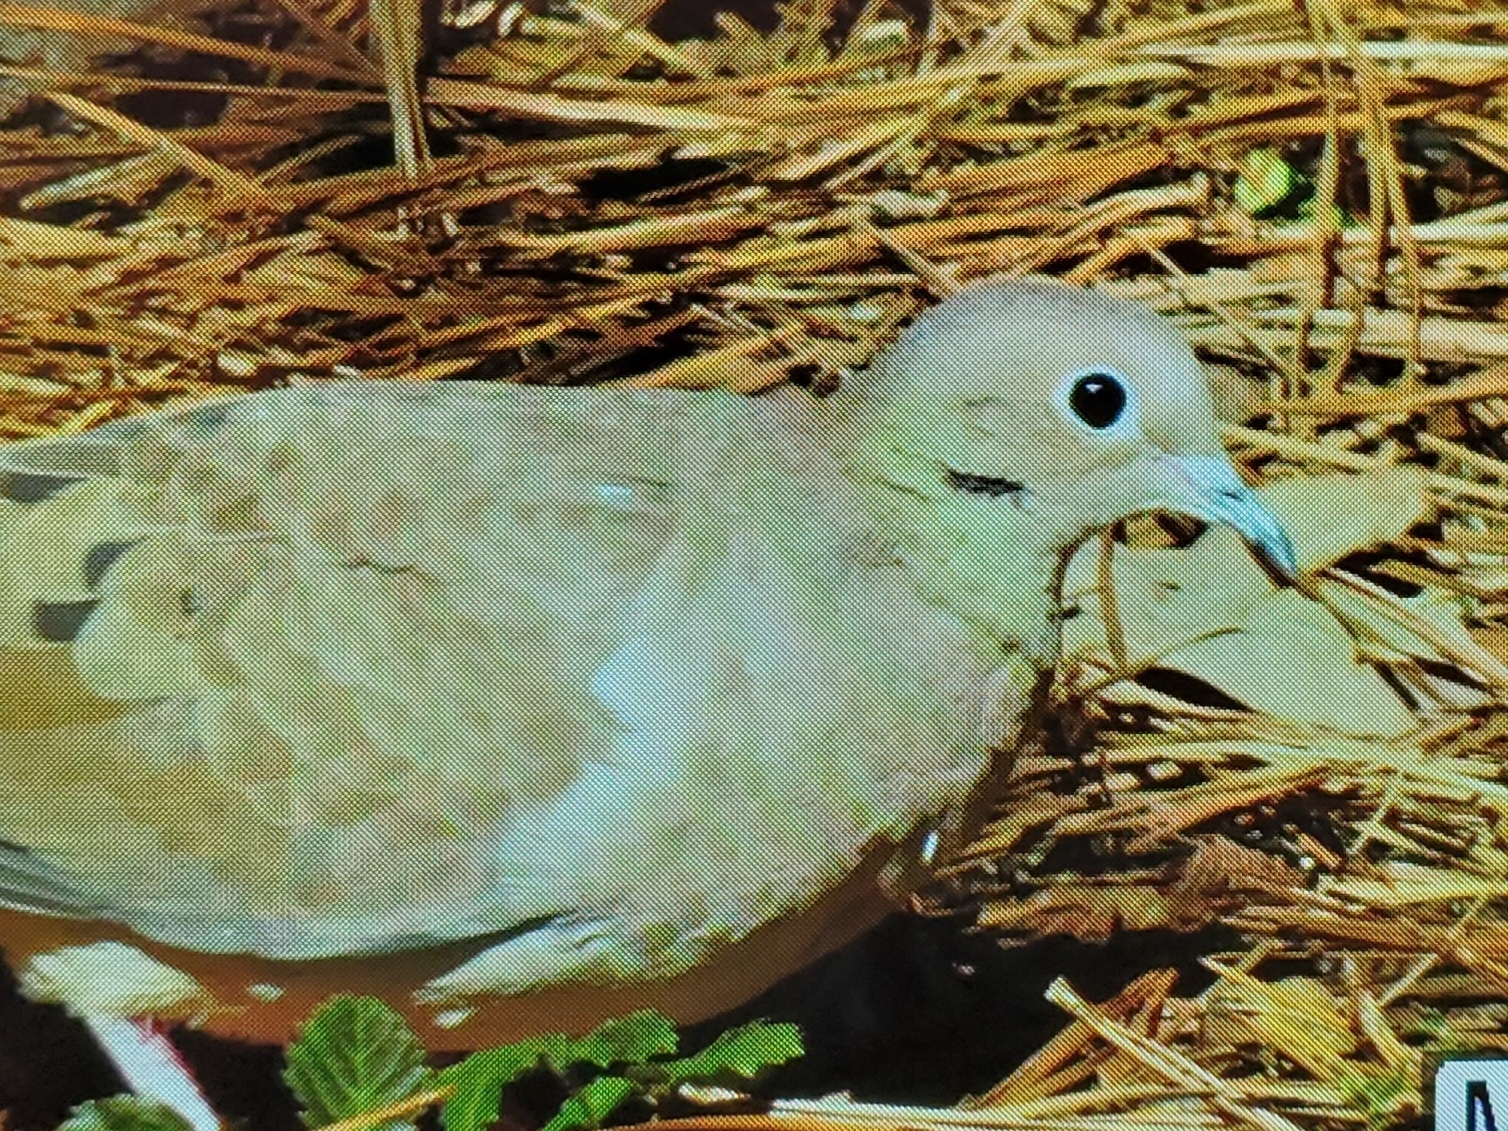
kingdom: Animalia
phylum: Chordata
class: Aves
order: Columbiformes
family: Columbidae
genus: Zenaida
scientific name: Zenaida macroura
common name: Mourning dove
